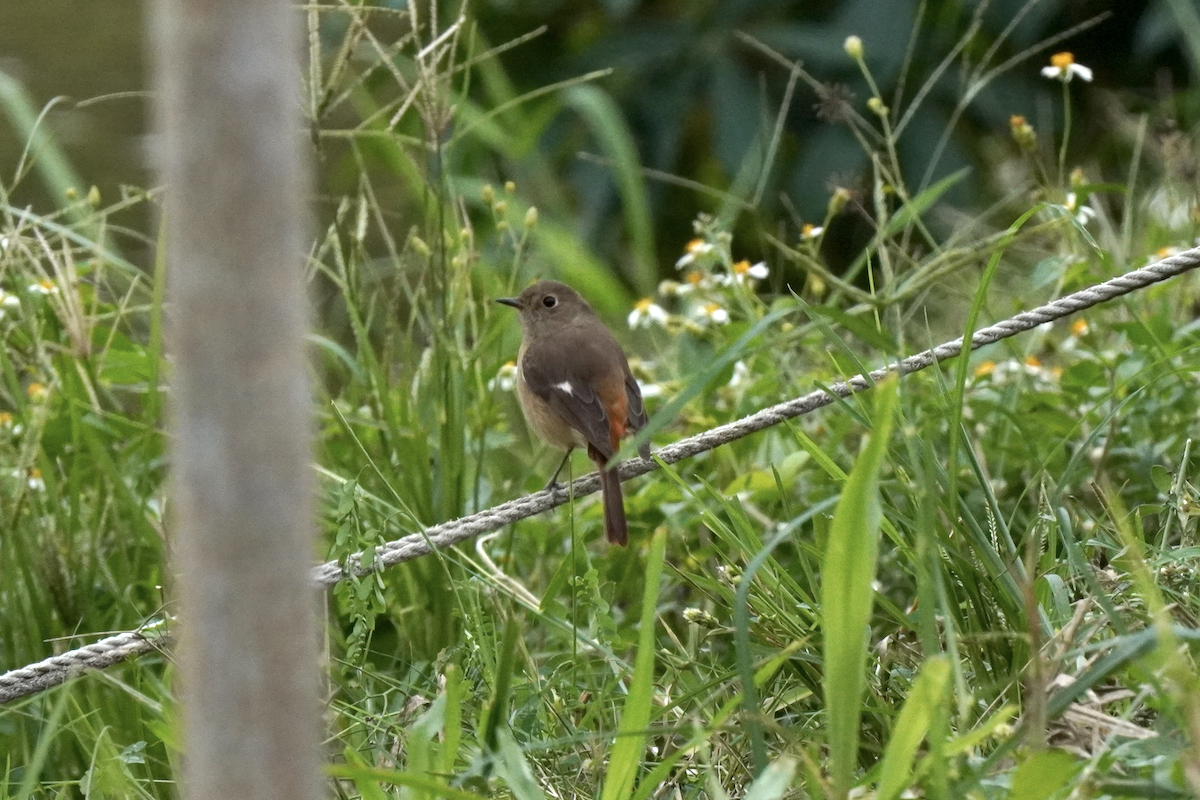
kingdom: Animalia
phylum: Chordata
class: Aves
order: Passeriformes
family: Muscicapidae
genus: Phoenicurus
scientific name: Phoenicurus auroreus
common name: Daurian redstart
